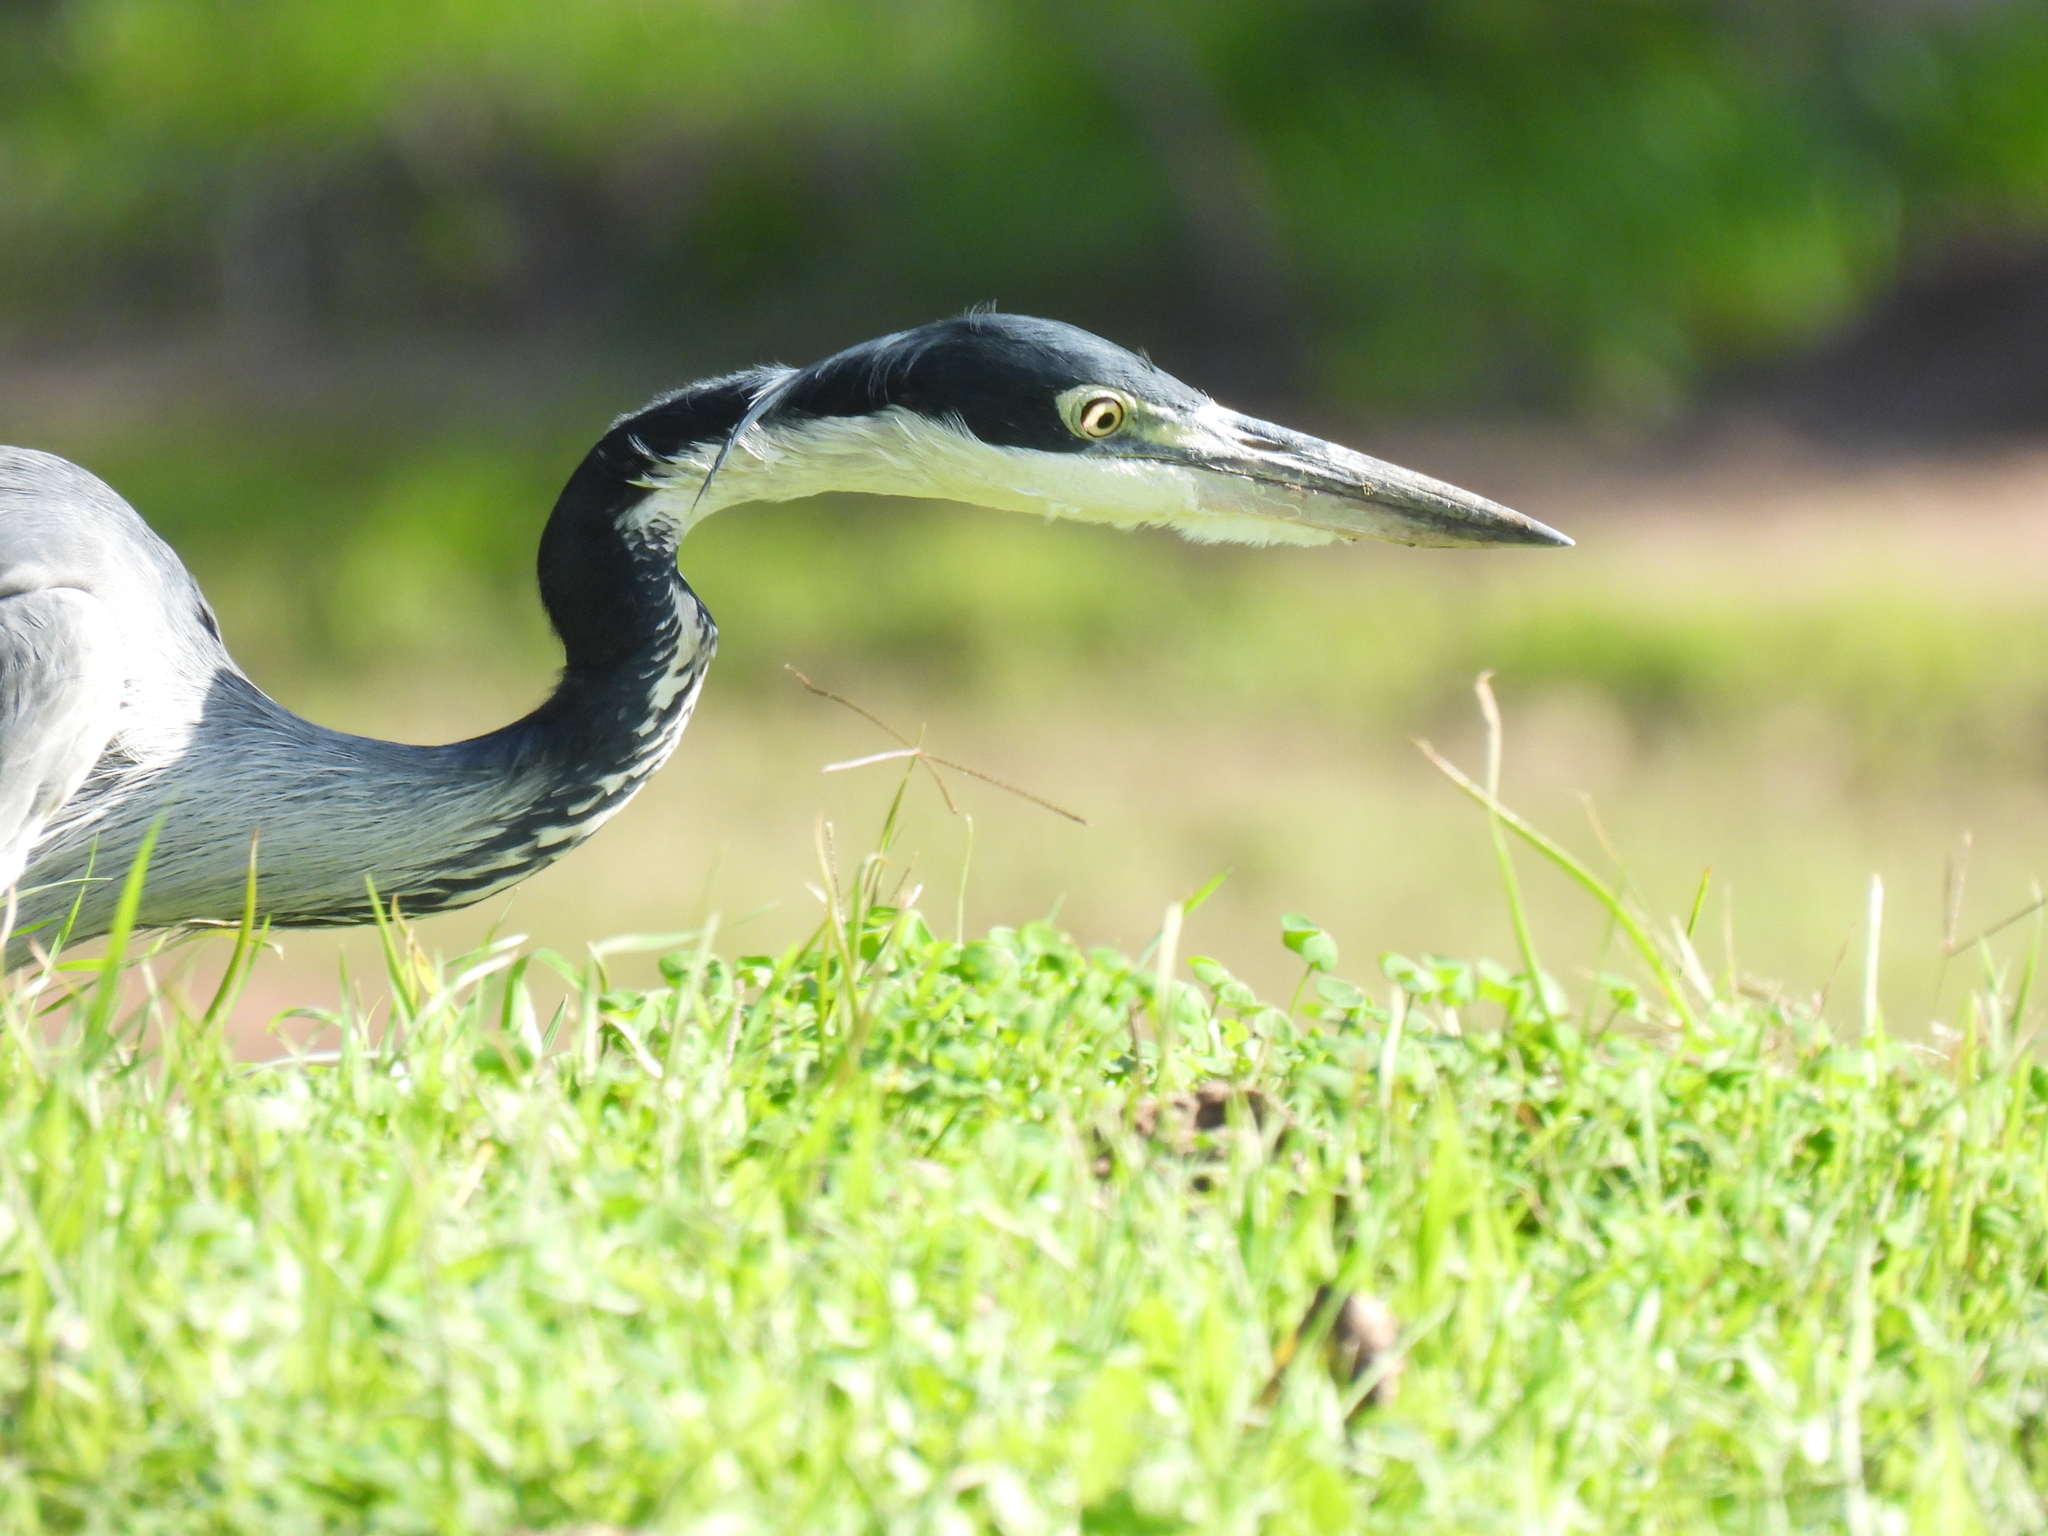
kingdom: Animalia
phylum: Chordata
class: Aves
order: Pelecaniformes
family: Ardeidae
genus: Ardea
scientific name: Ardea melanocephala
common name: Black-headed heron
